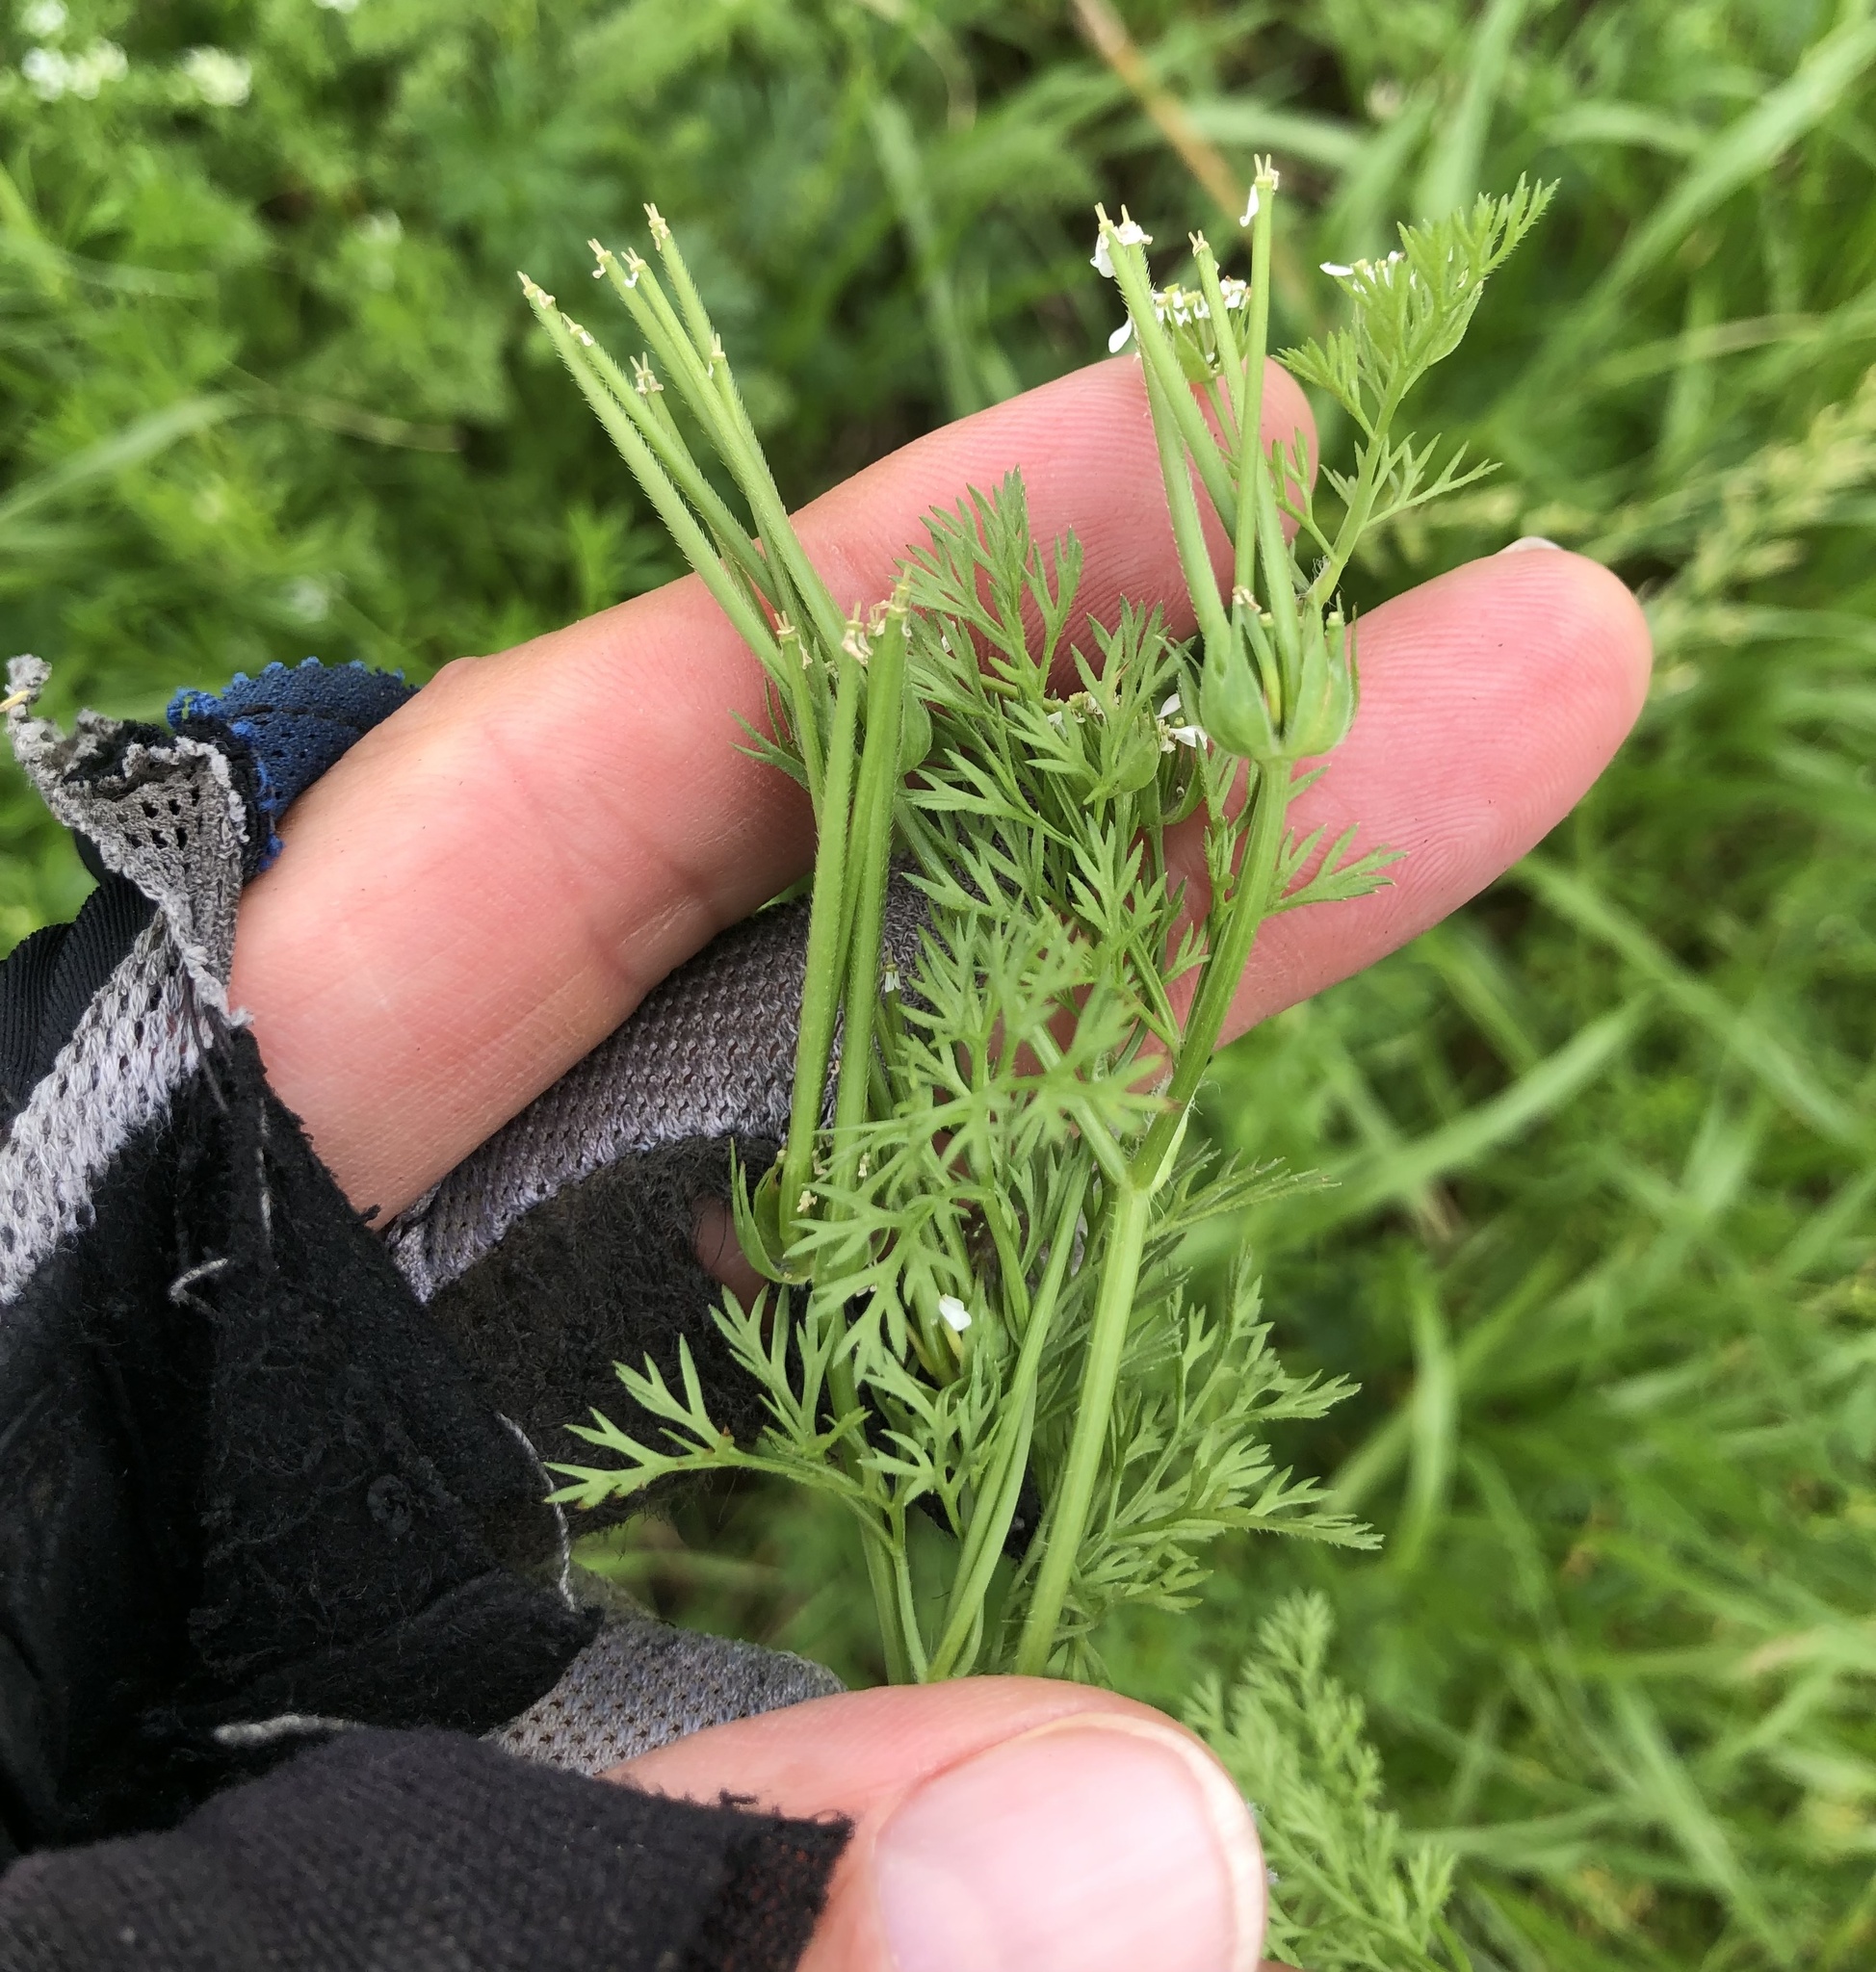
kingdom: Plantae
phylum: Tracheophyta
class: Magnoliopsida
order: Apiales
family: Apiaceae
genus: Scandix
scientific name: Scandix pecten-veneris
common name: Shepherd's-needle
